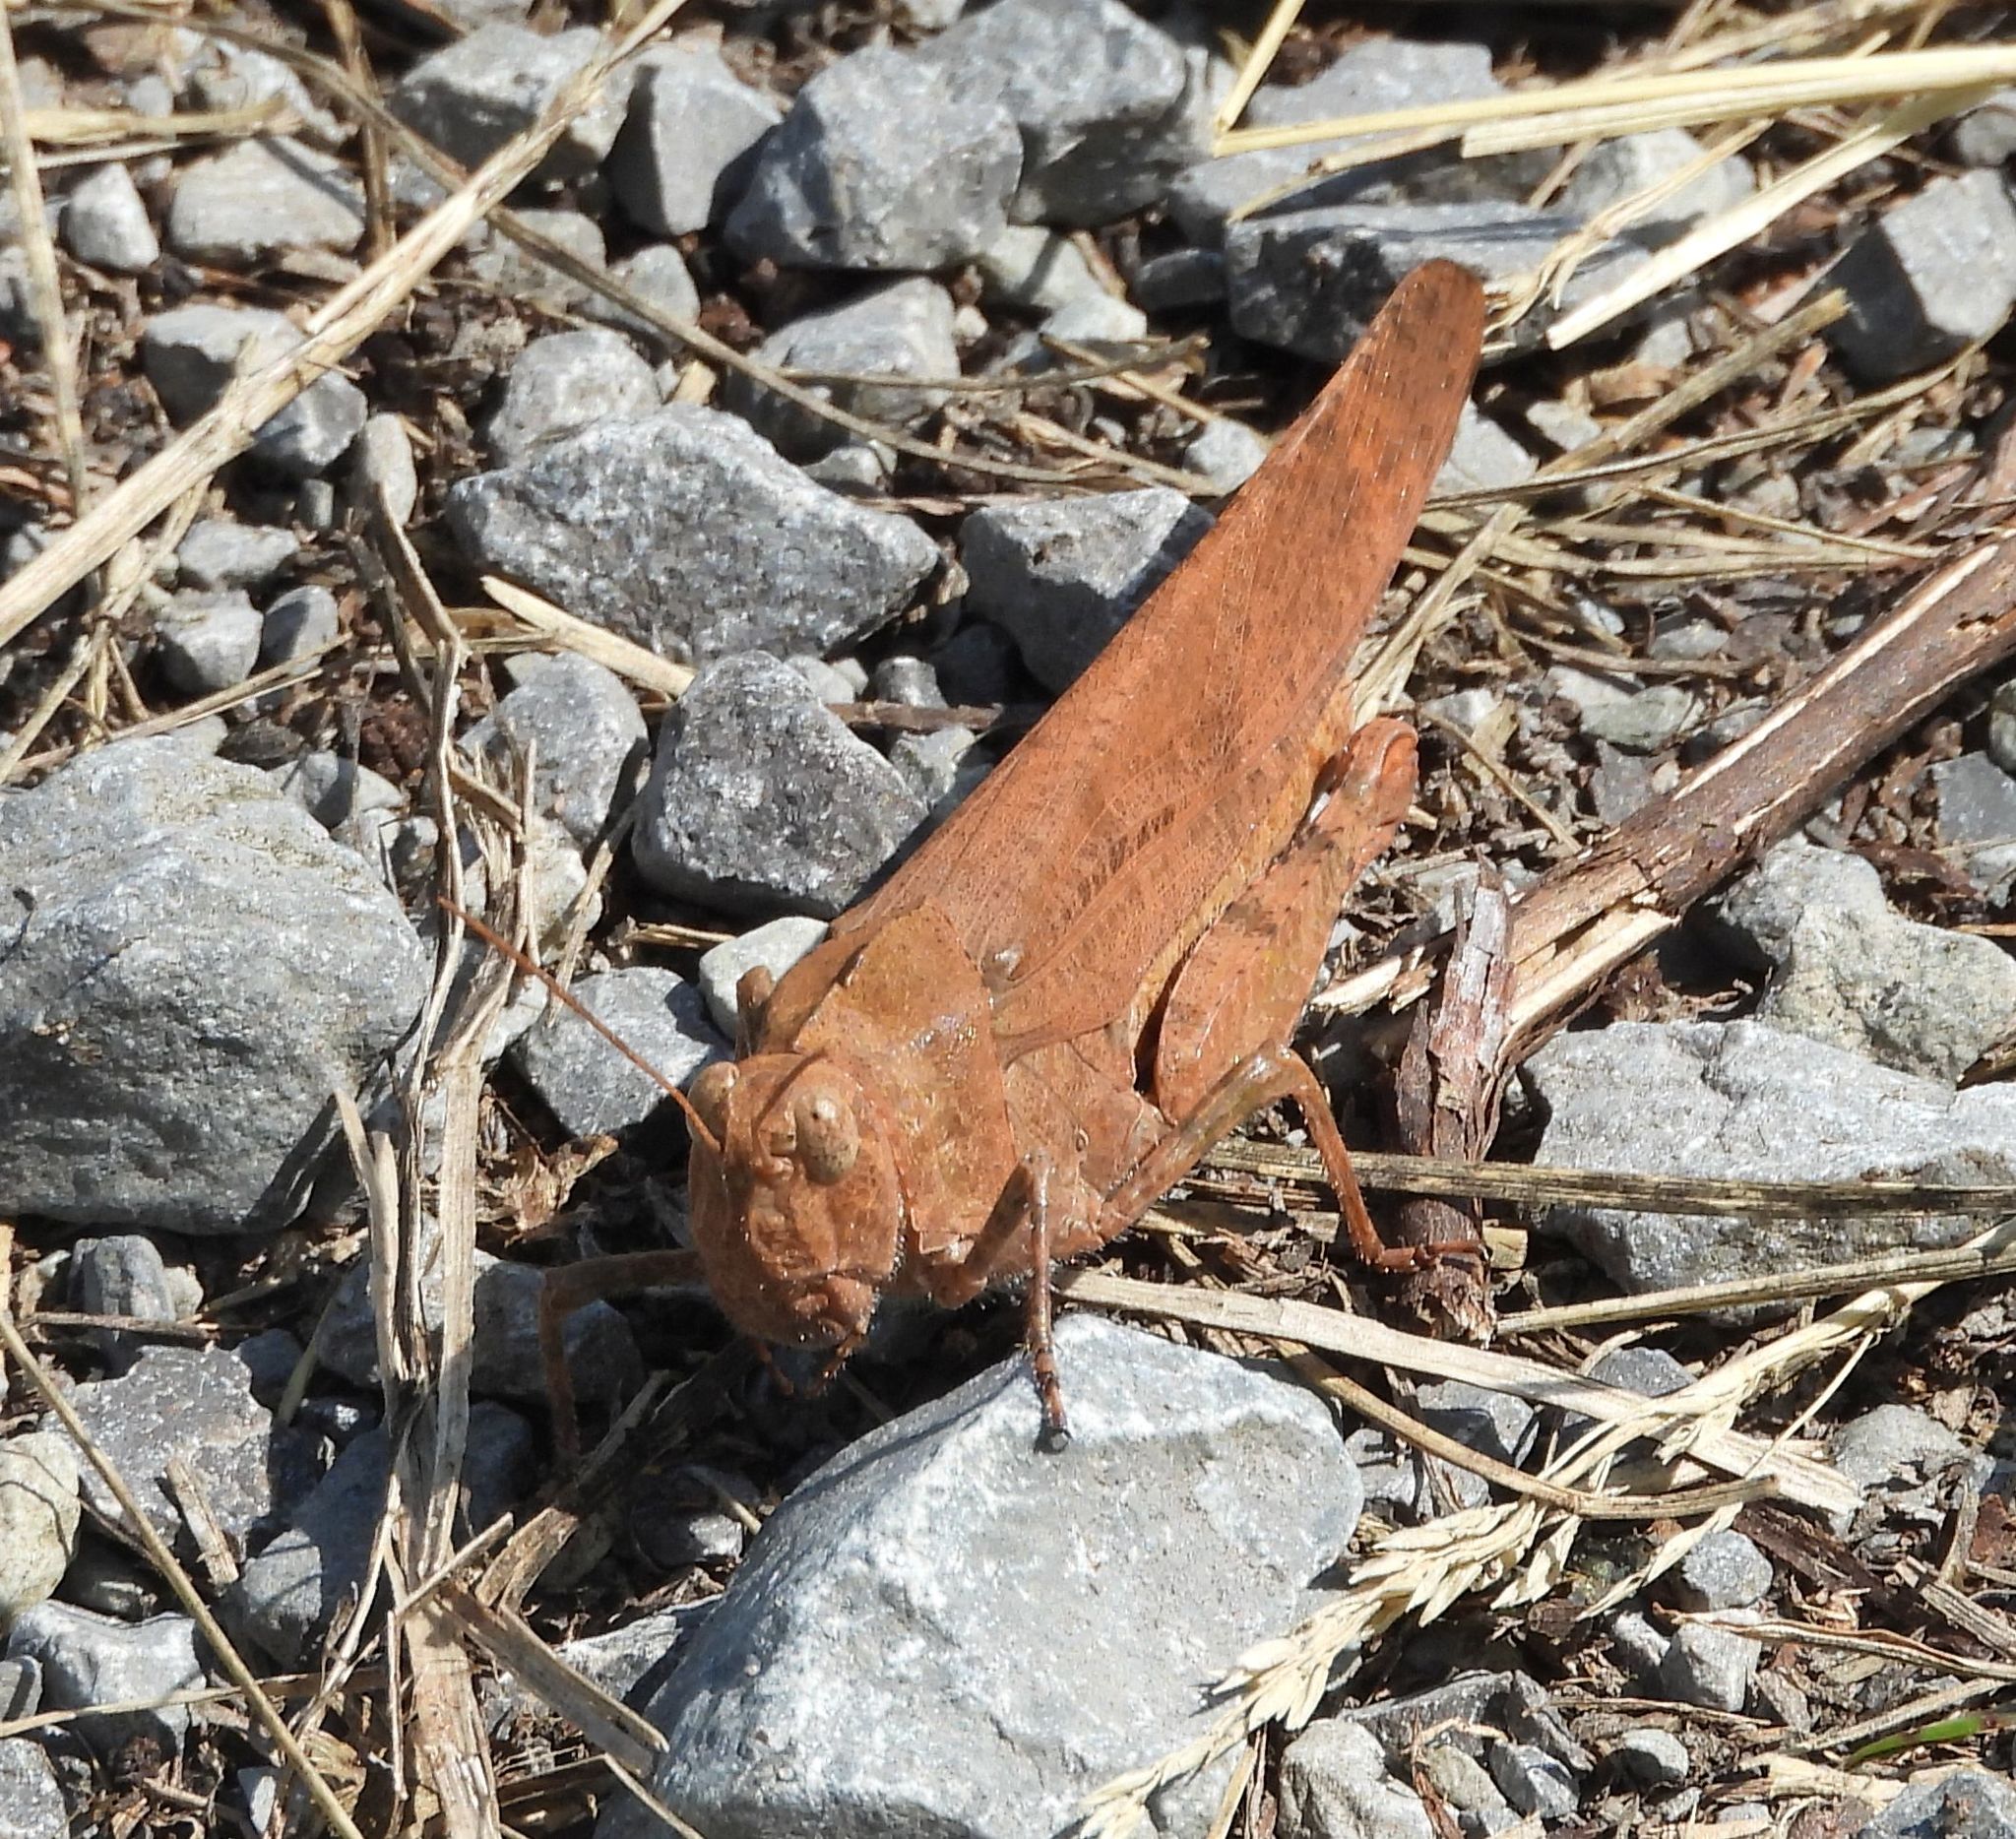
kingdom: Animalia
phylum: Arthropoda
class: Insecta
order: Orthoptera
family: Acrididae
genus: Dissosteira
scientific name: Dissosteira carolina
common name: Carolina grasshopper
